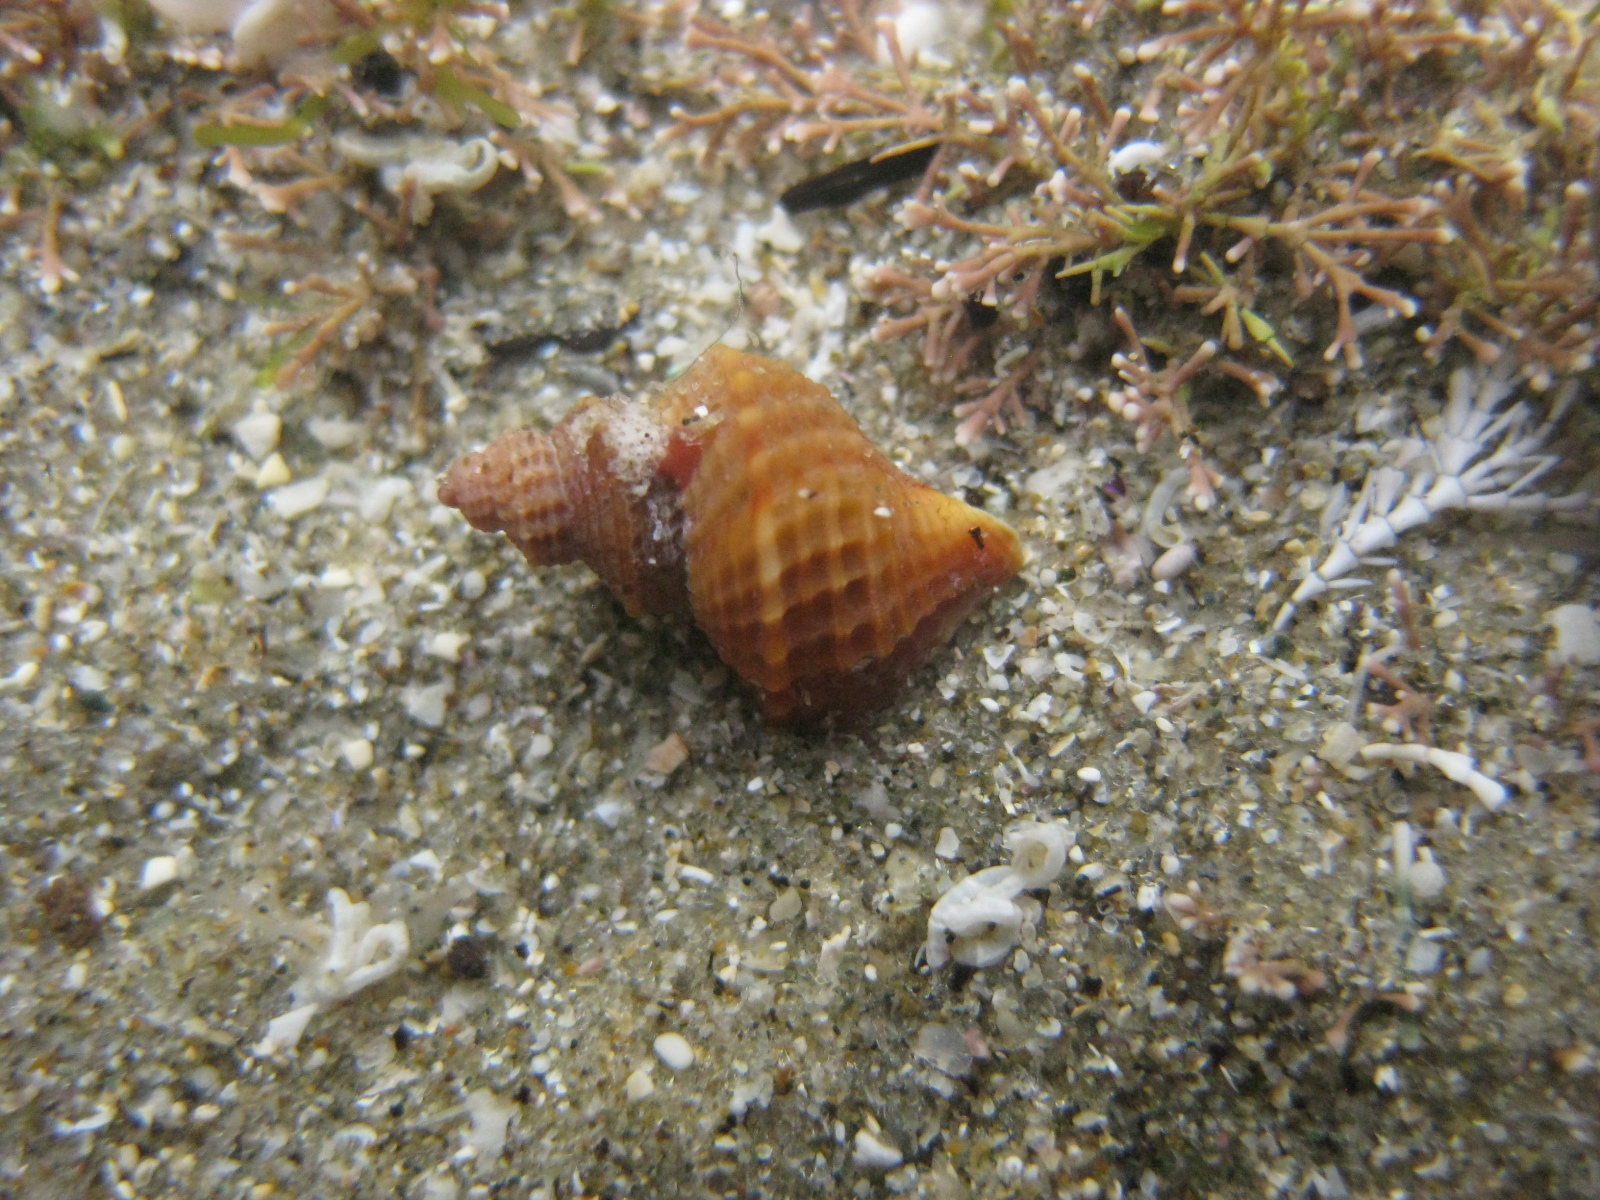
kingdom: Animalia
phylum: Mollusca
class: Gastropoda
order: Littorinimorpha
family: Capulidae
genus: Trichosirius
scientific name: Trichosirius inornatus
